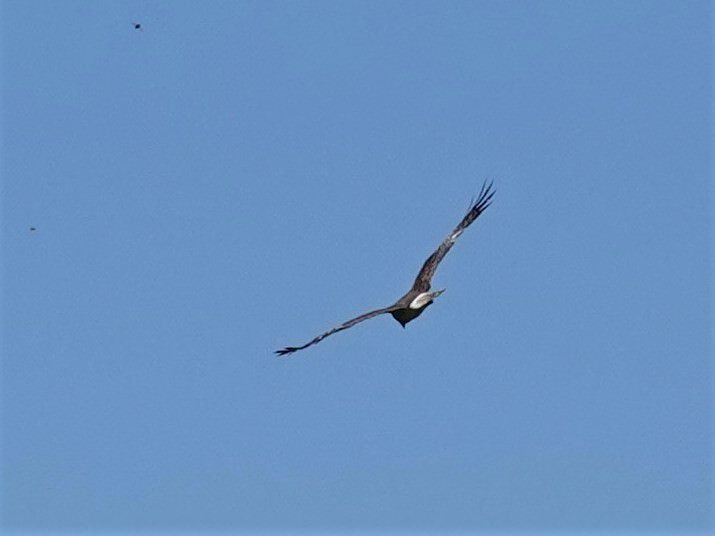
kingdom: Animalia
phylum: Chordata
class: Aves
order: Accipitriformes
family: Accipitridae
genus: Circus
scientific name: Circus approximans
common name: Swamp harrier
